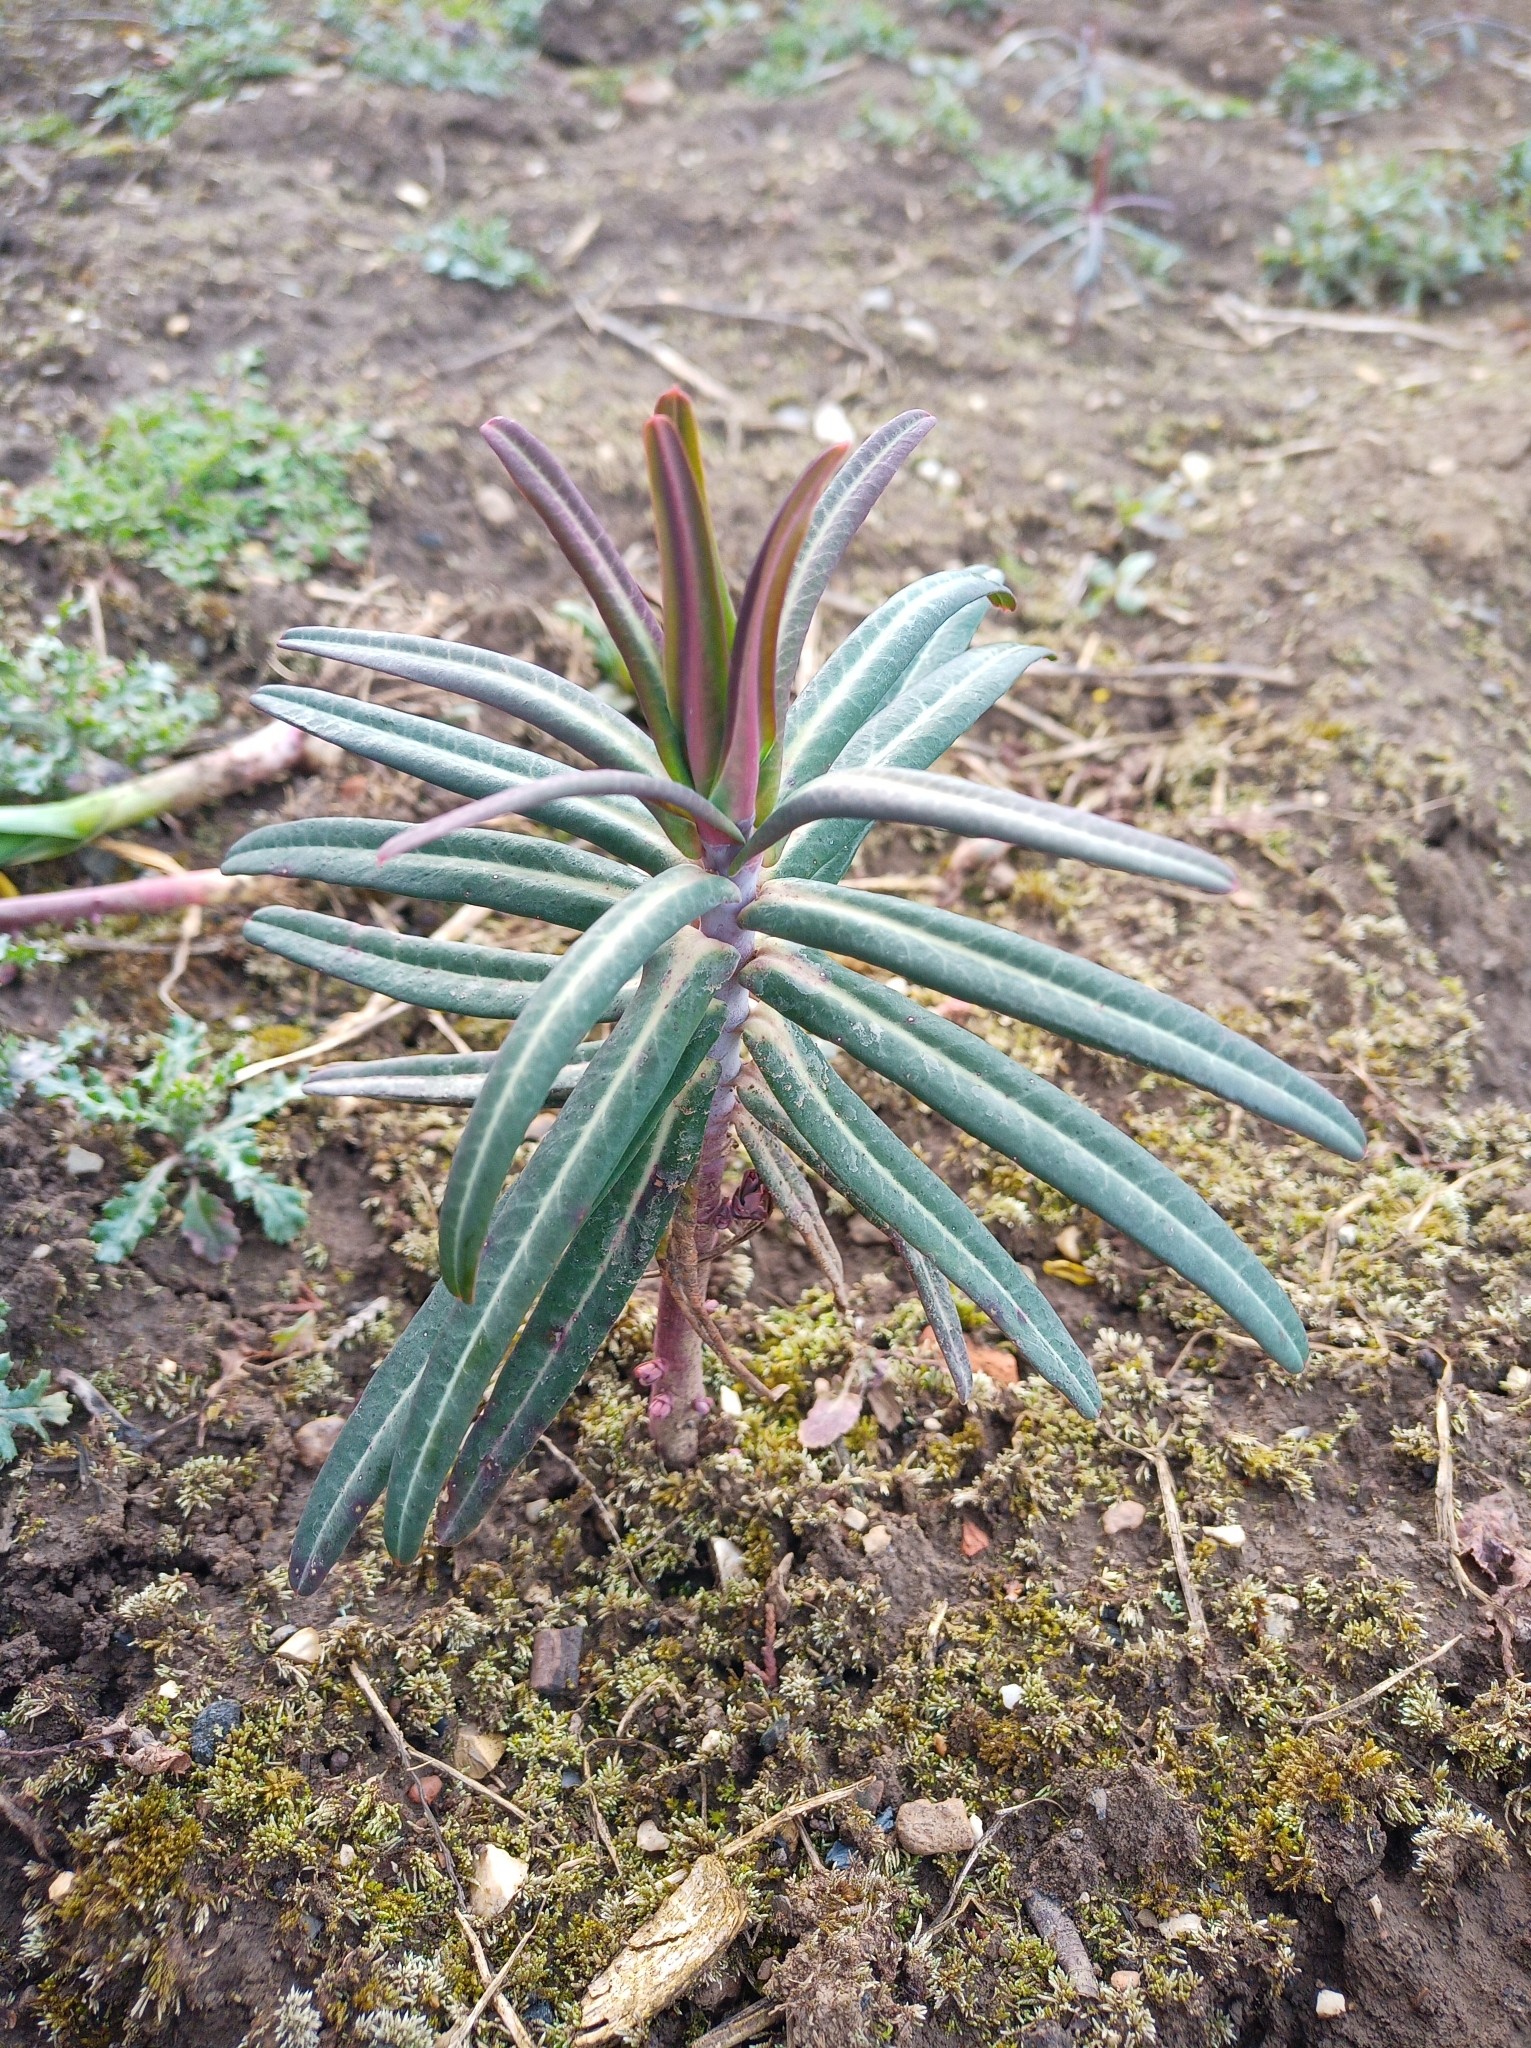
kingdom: Plantae
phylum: Tracheophyta
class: Magnoliopsida
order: Malpighiales
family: Euphorbiaceae
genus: Euphorbia
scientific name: Euphorbia lathyris
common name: Caper spurge
